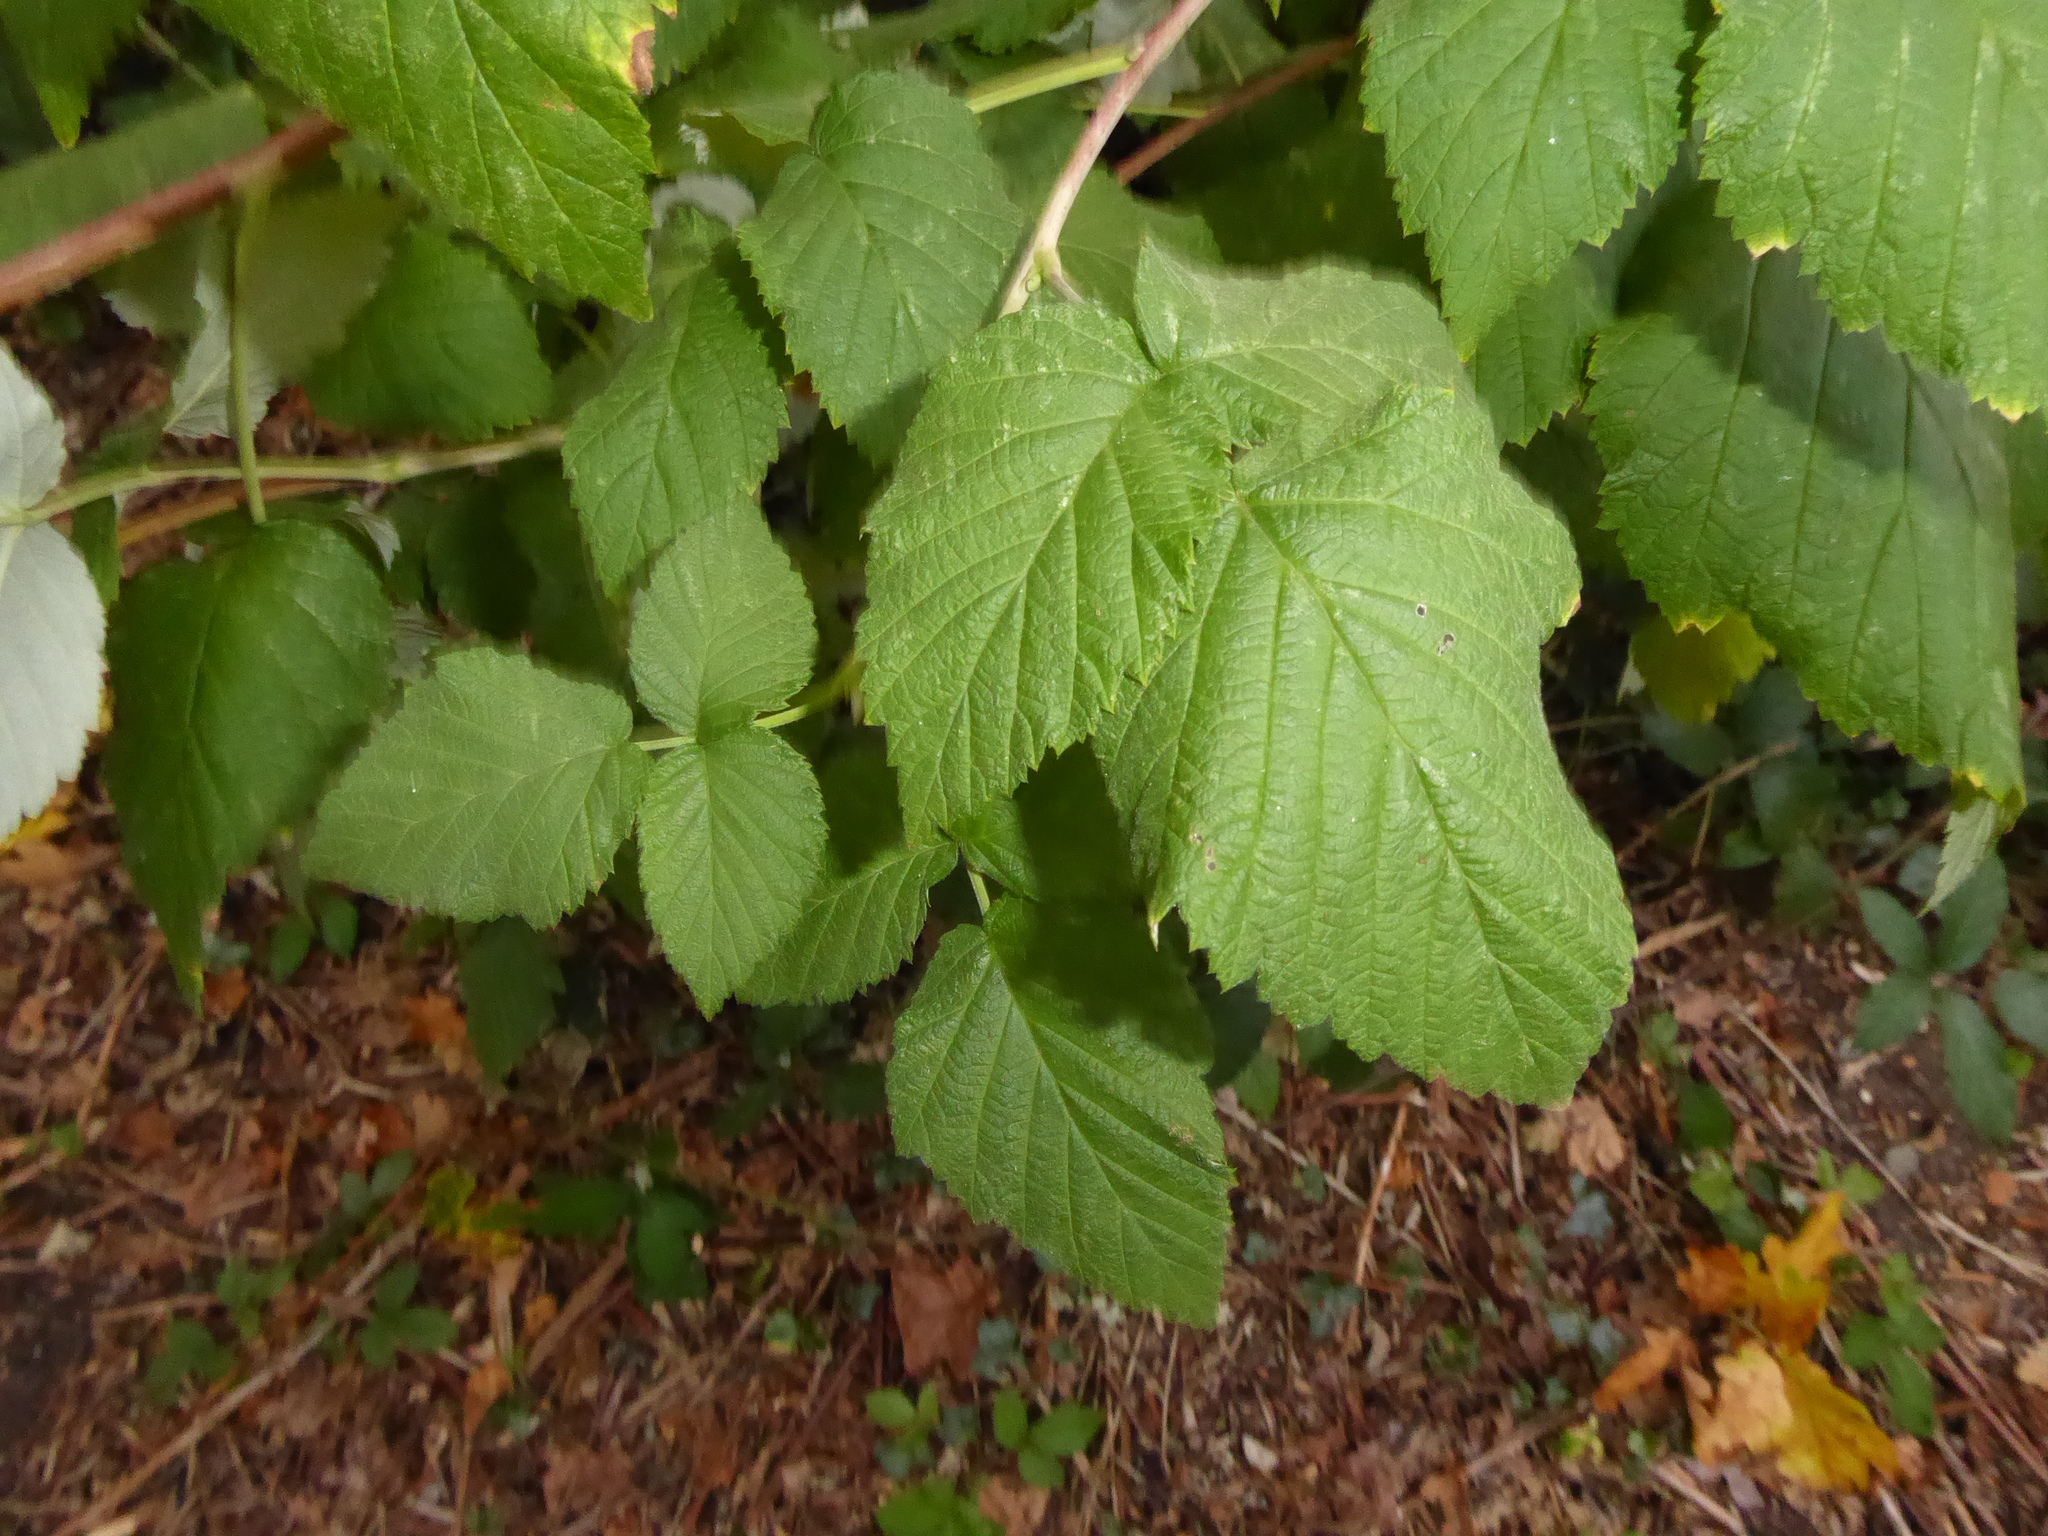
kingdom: Plantae
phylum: Tracheophyta
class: Magnoliopsida
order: Rosales
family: Rosaceae
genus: Rubus
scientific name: Rubus idaeus
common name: Raspberry
